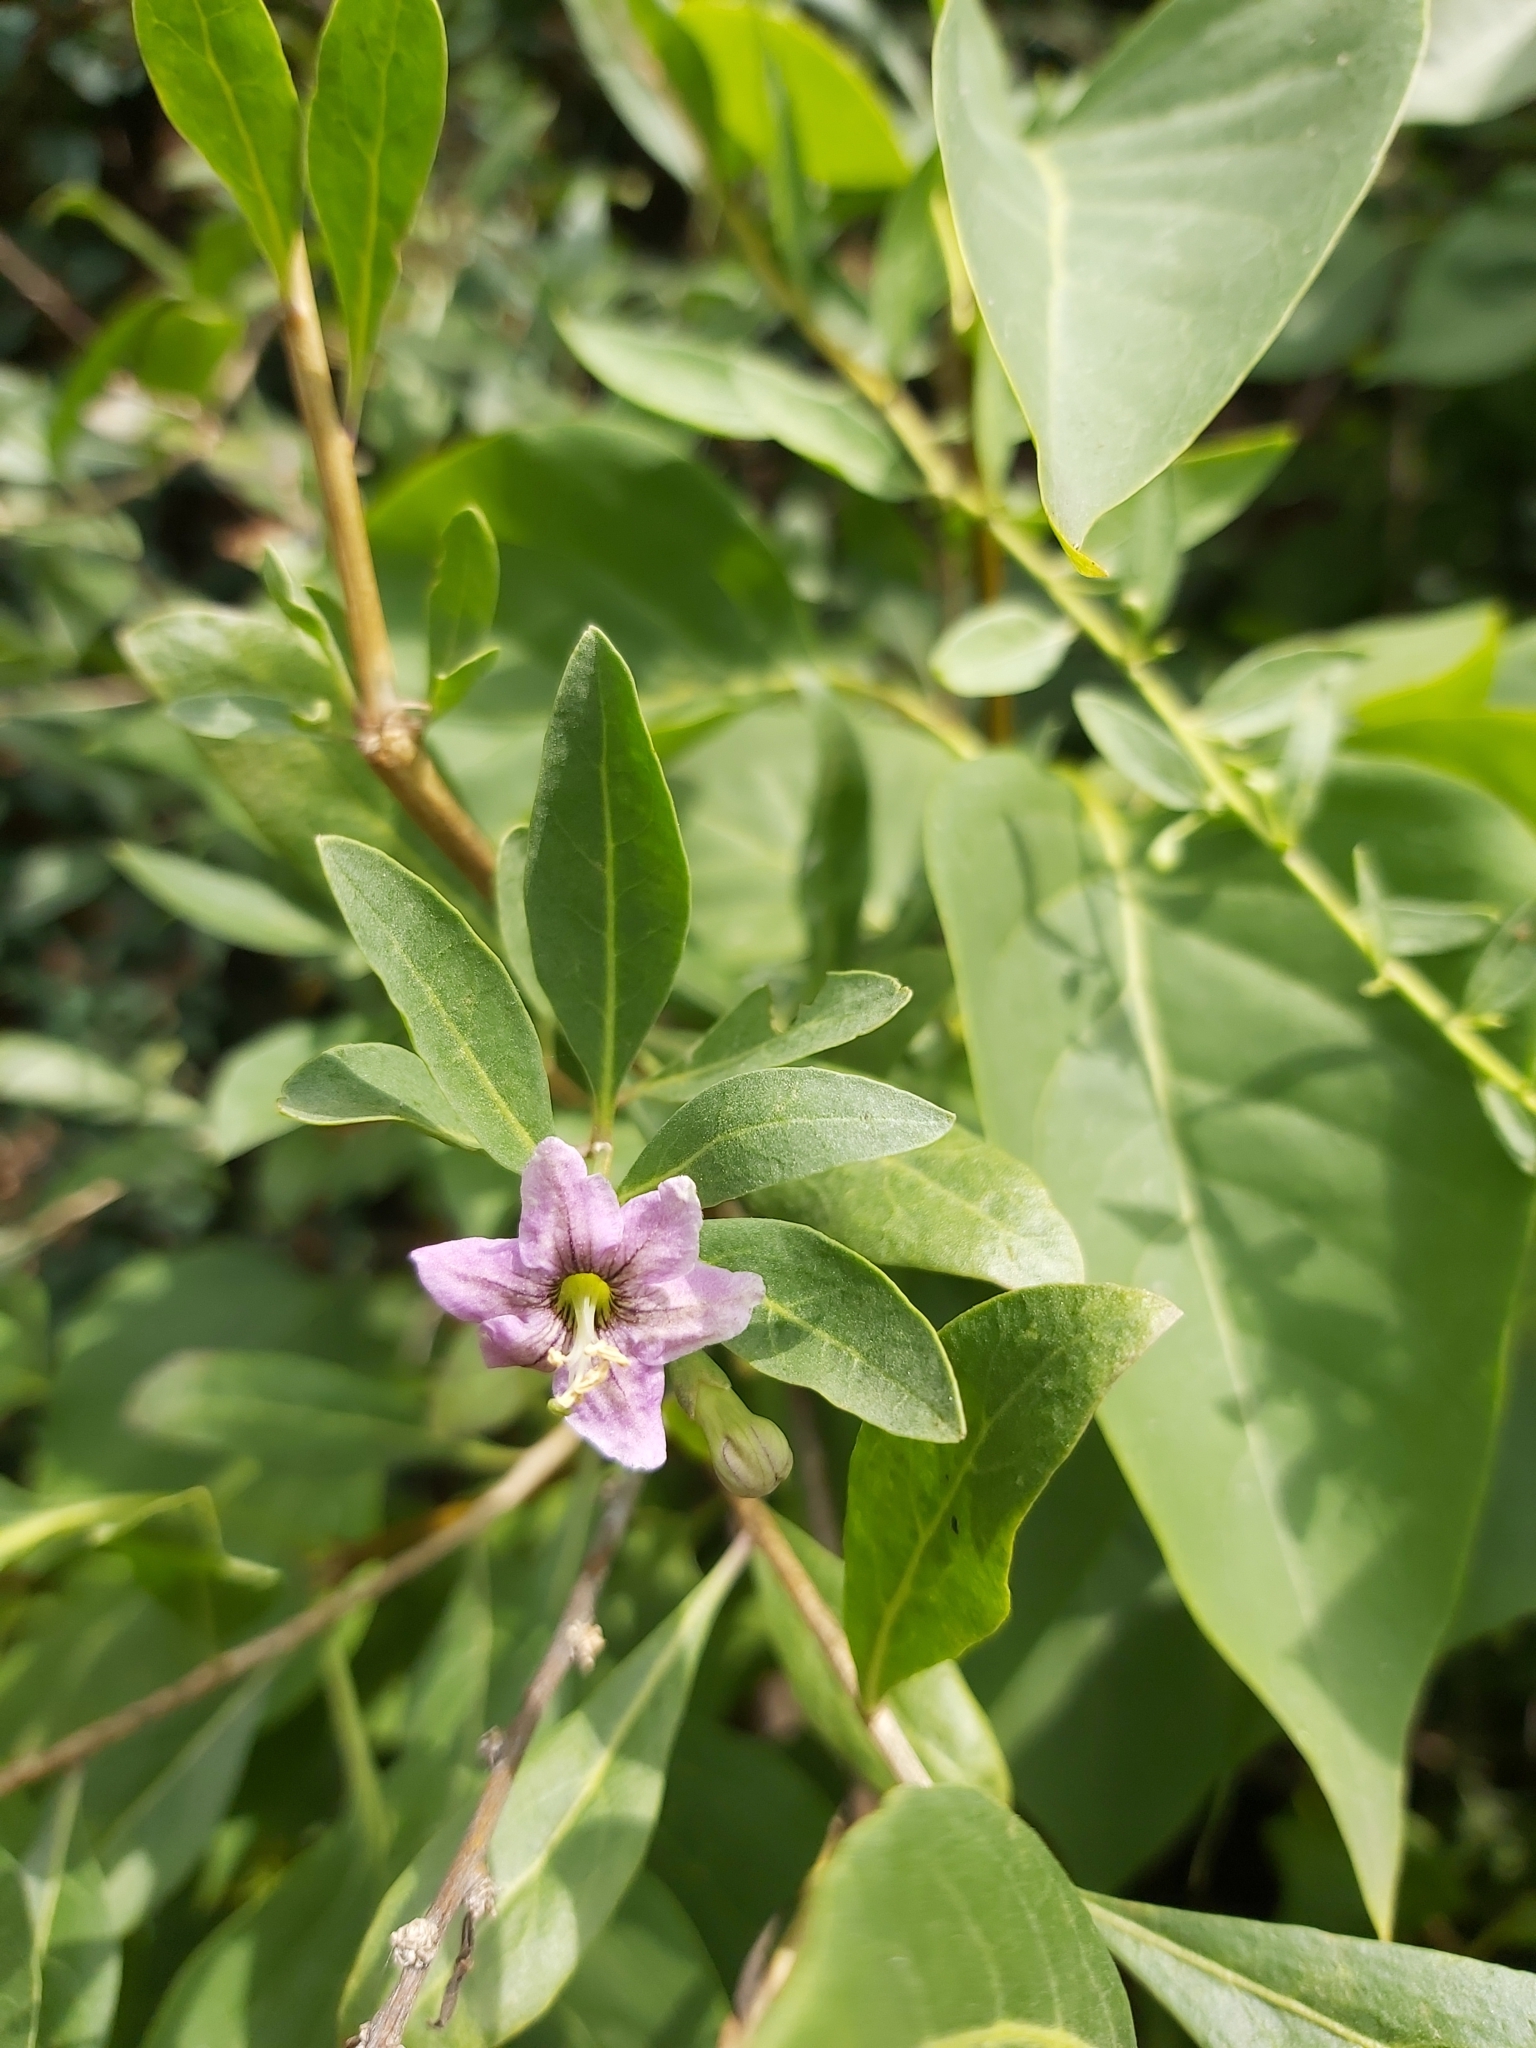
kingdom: Plantae
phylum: Tracheophyta
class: Magnoliopsida
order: Solanales
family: Solanaceae
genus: Lycium
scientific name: Lycium barbarum
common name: Duke of argyll's teaplant
